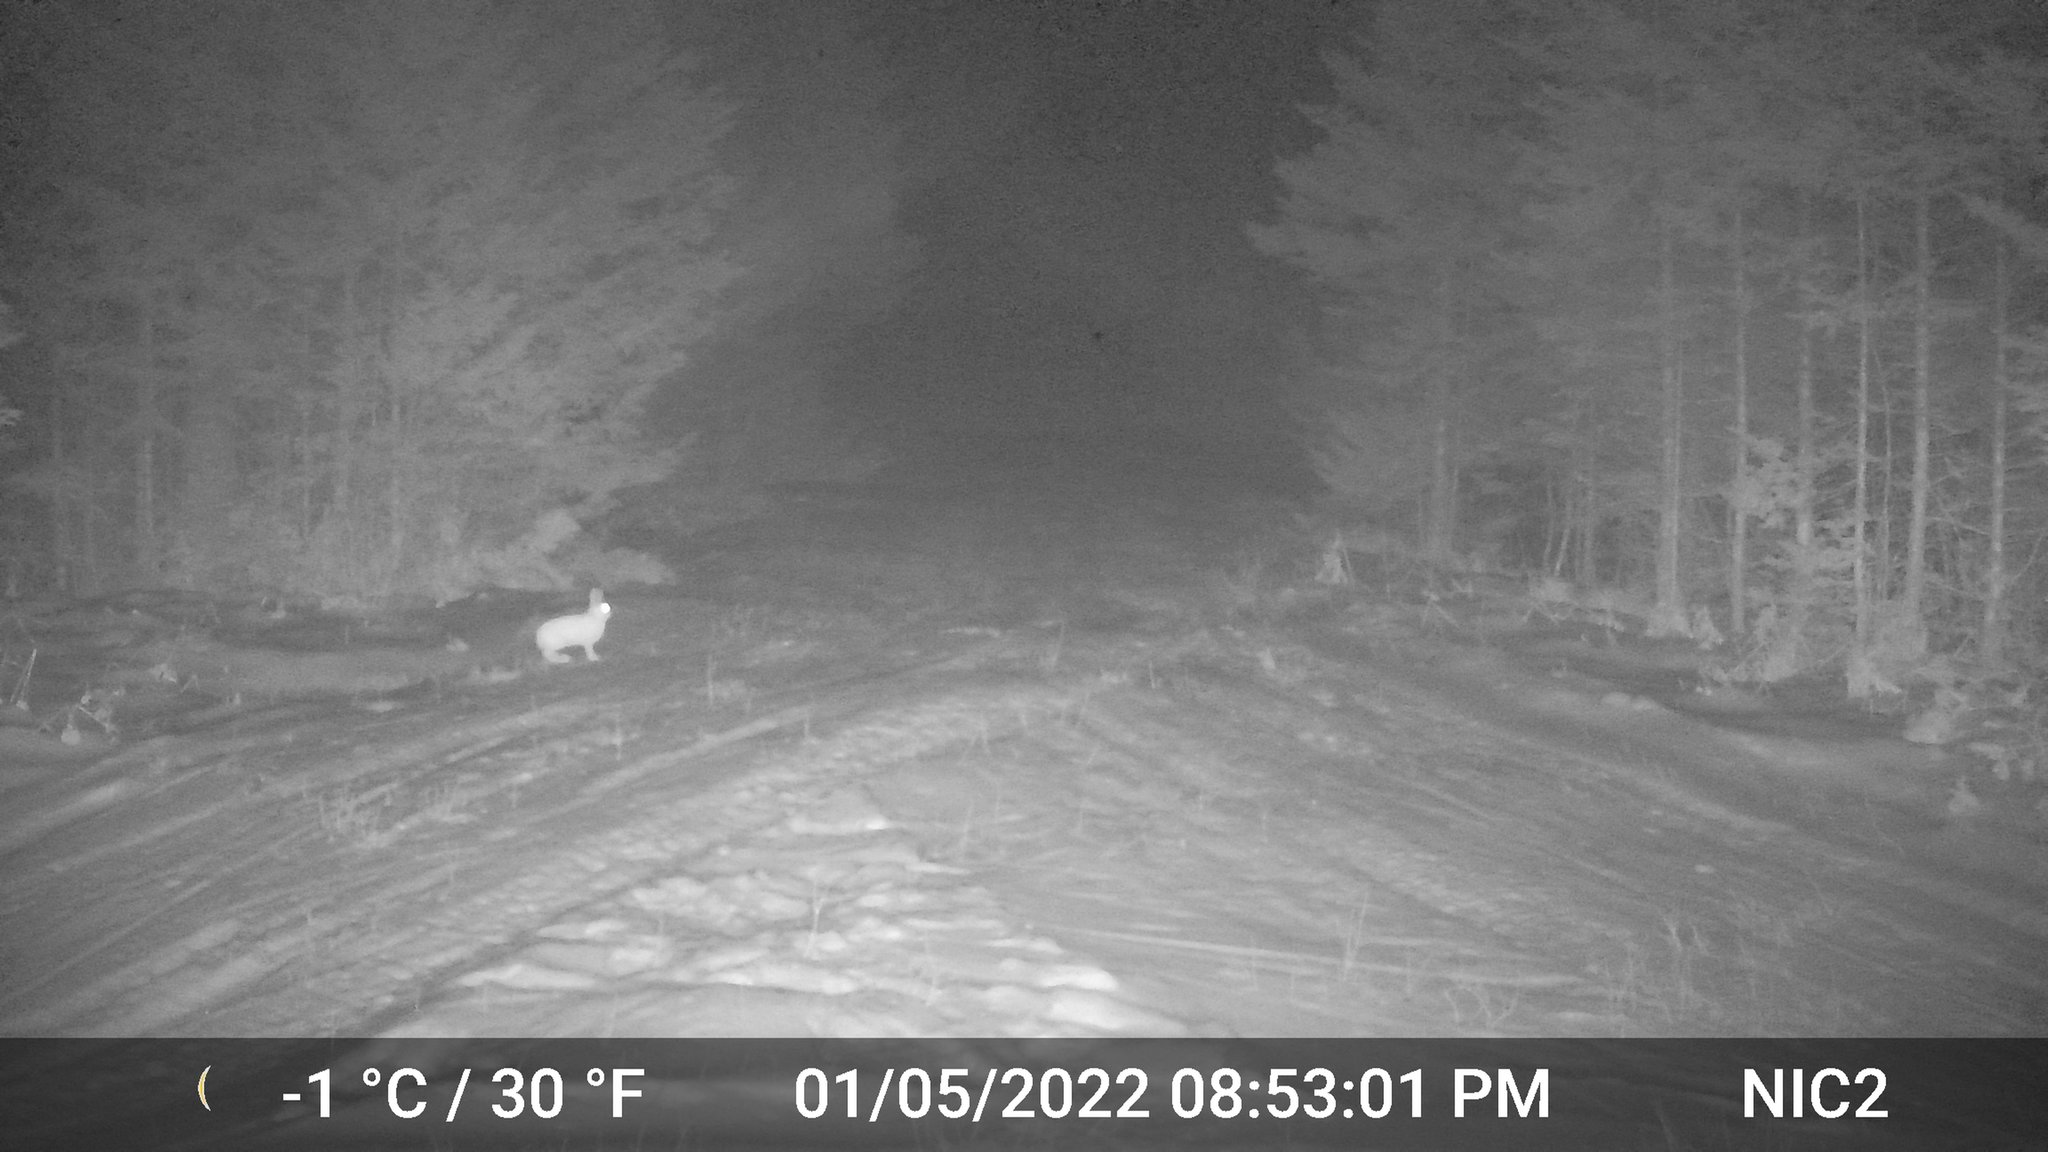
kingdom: Animalia
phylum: Chordata
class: Mammalia
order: Lagomorpha
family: Leporidae
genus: Lepus
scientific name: Lepus americanus
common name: Snowshoe hare
